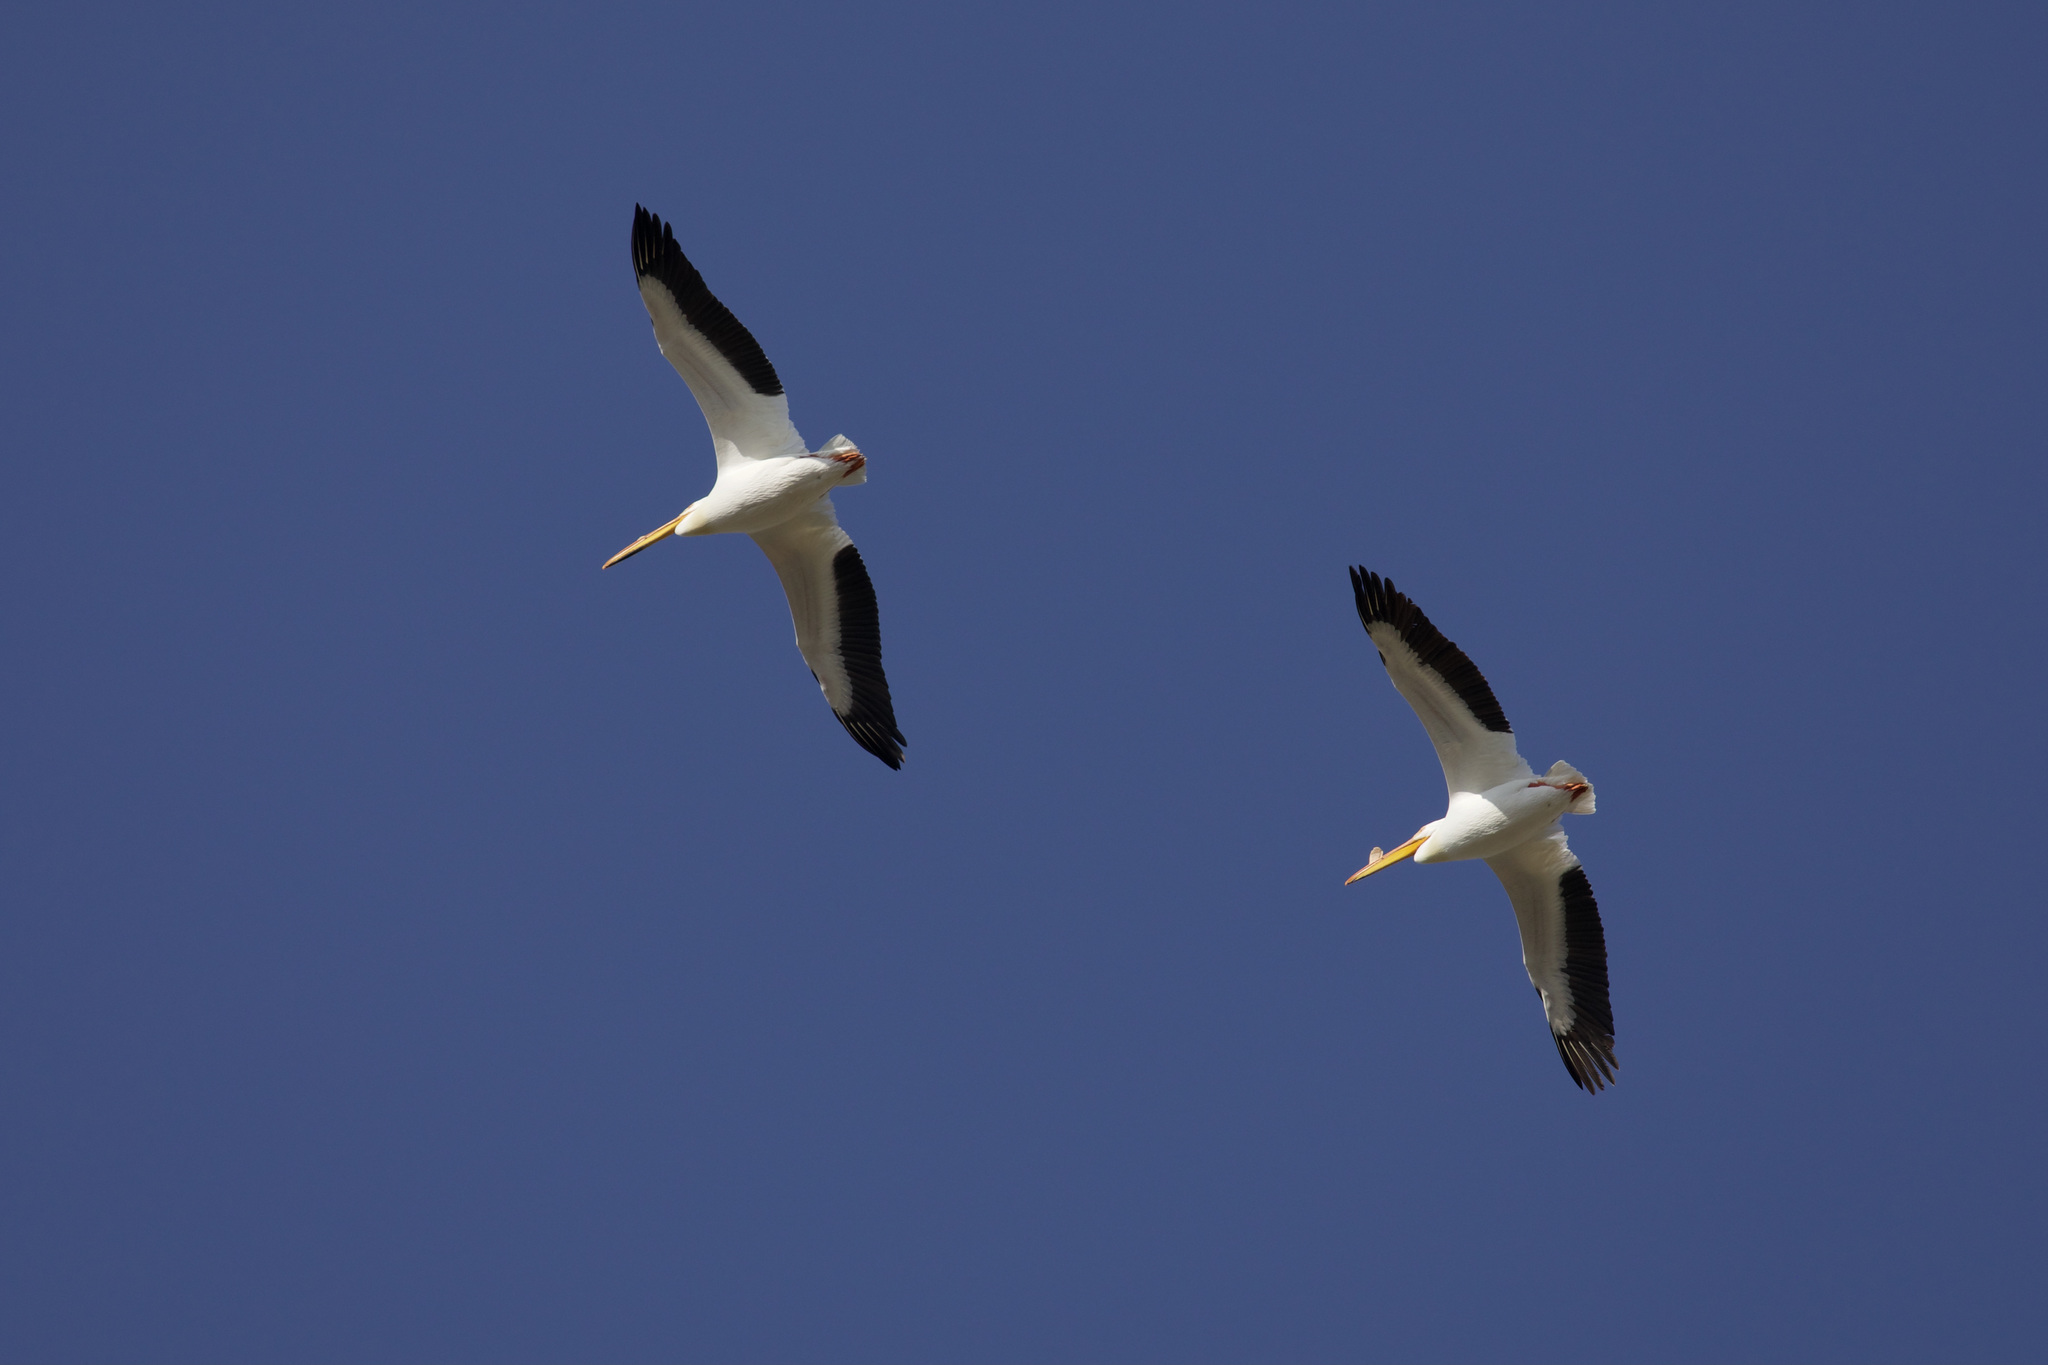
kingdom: Animalia
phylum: Chordata
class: Aves
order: Pelecaniformes
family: Pelecanidae
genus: Pelecanus
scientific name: Pelecanus erythrorhynchos
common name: American white pelican
